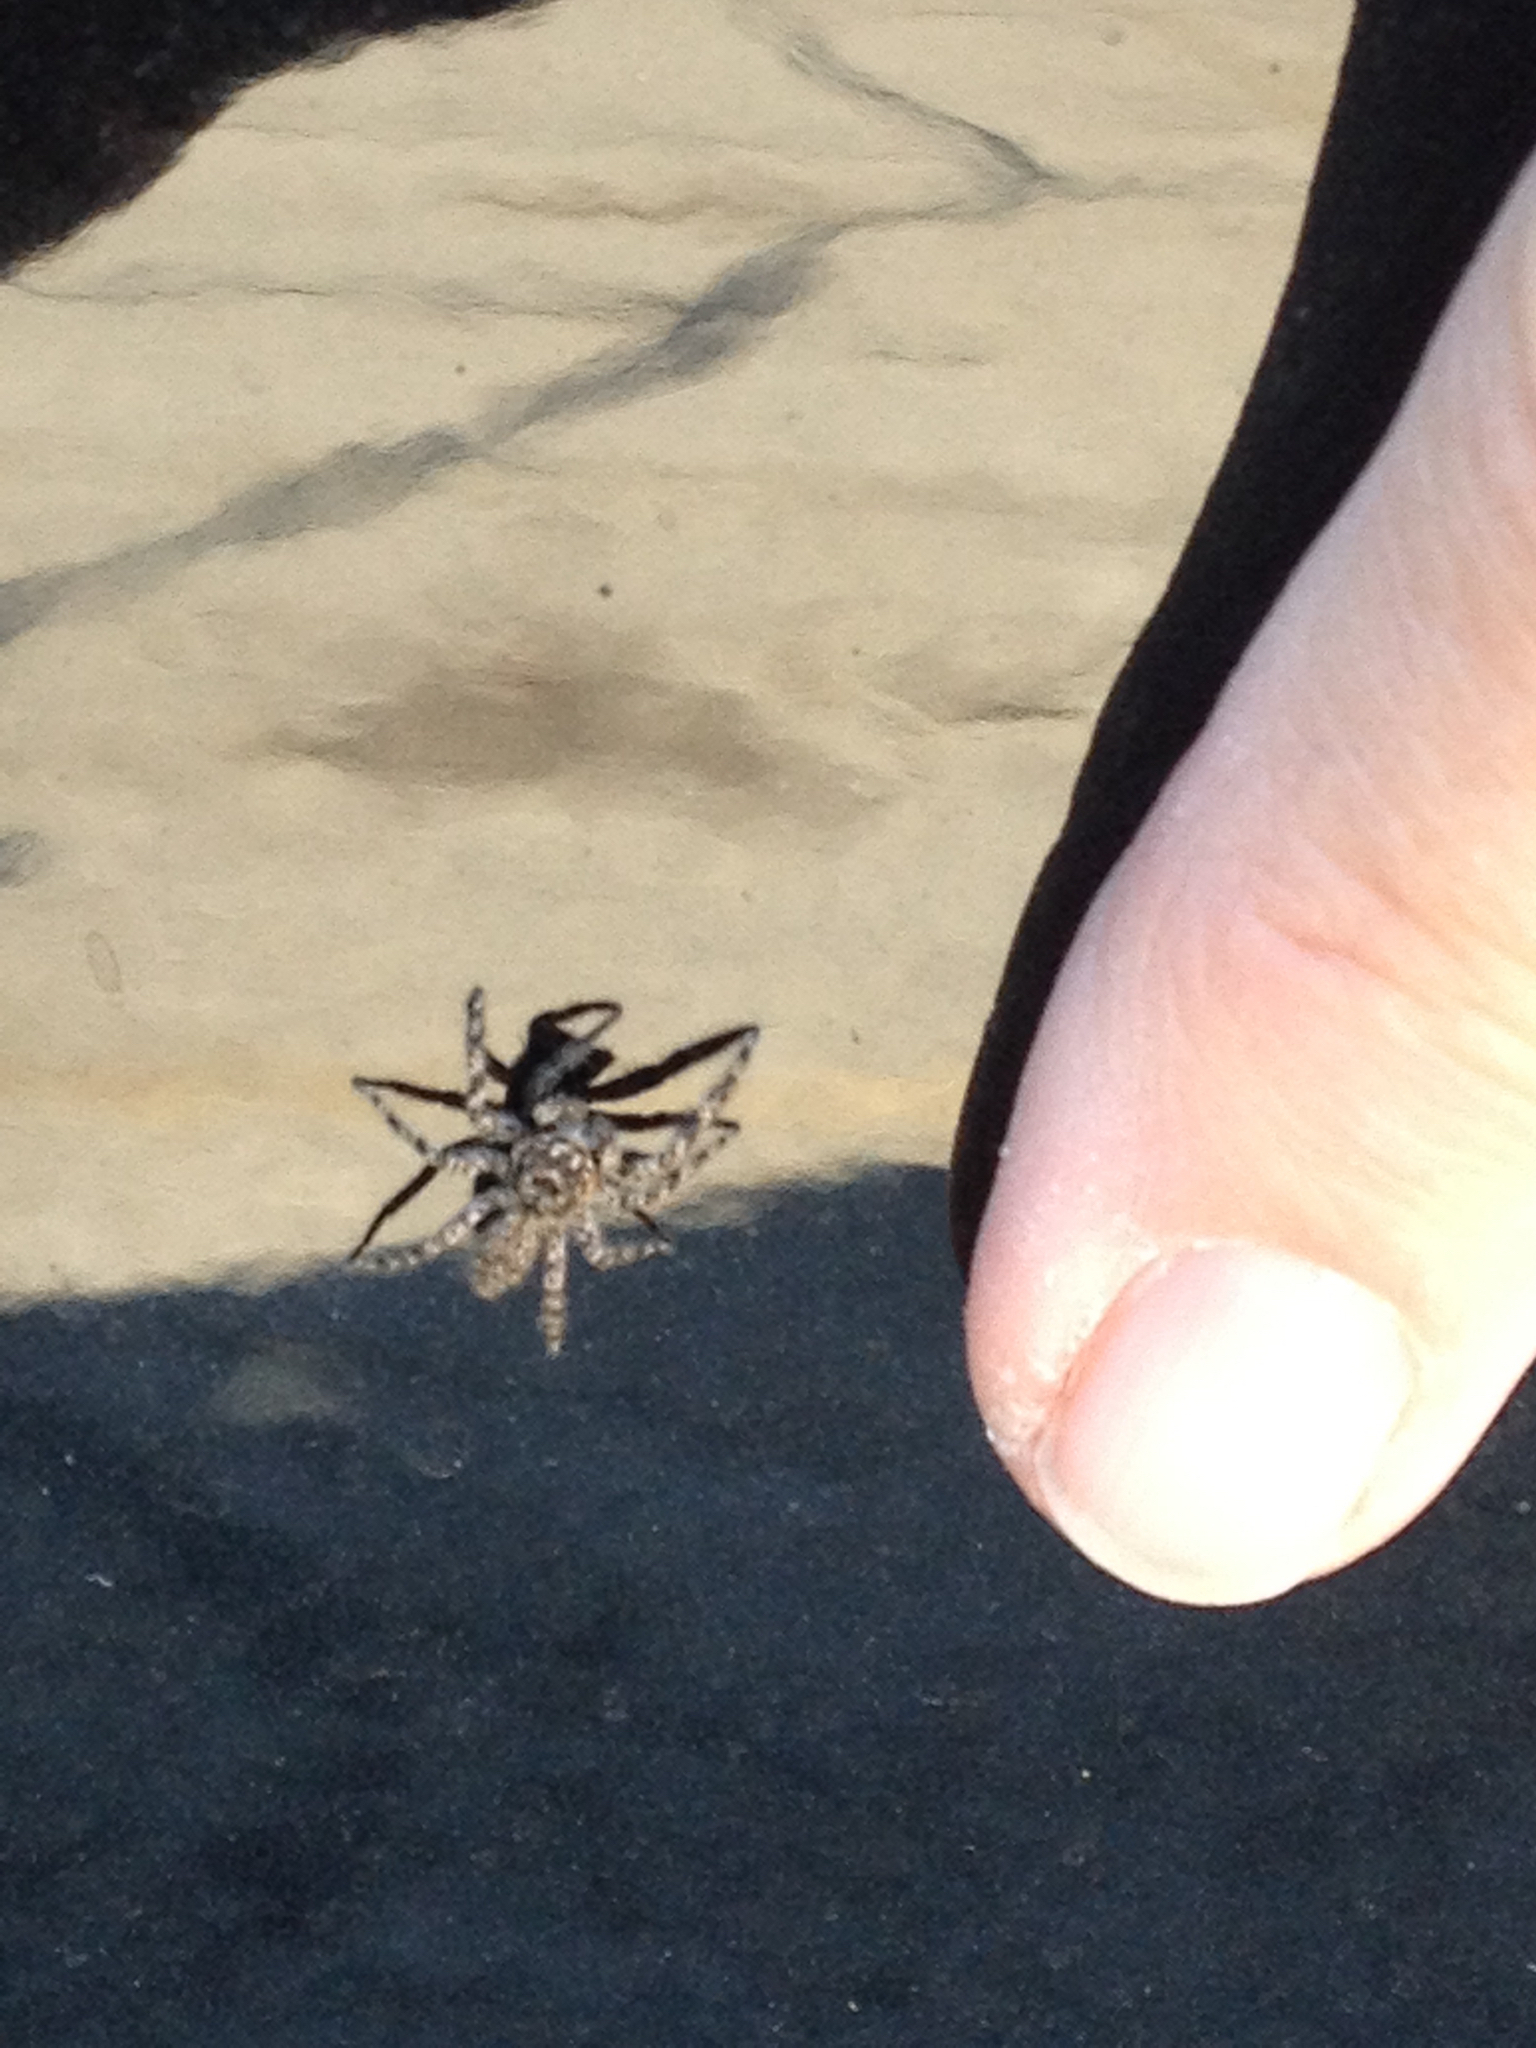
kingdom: Animalia
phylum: Arthropoda
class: Arachnida
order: Araneae
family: Salticidae
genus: Platycryptus
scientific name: Platycryptus undatus
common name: Tan jumping spider
